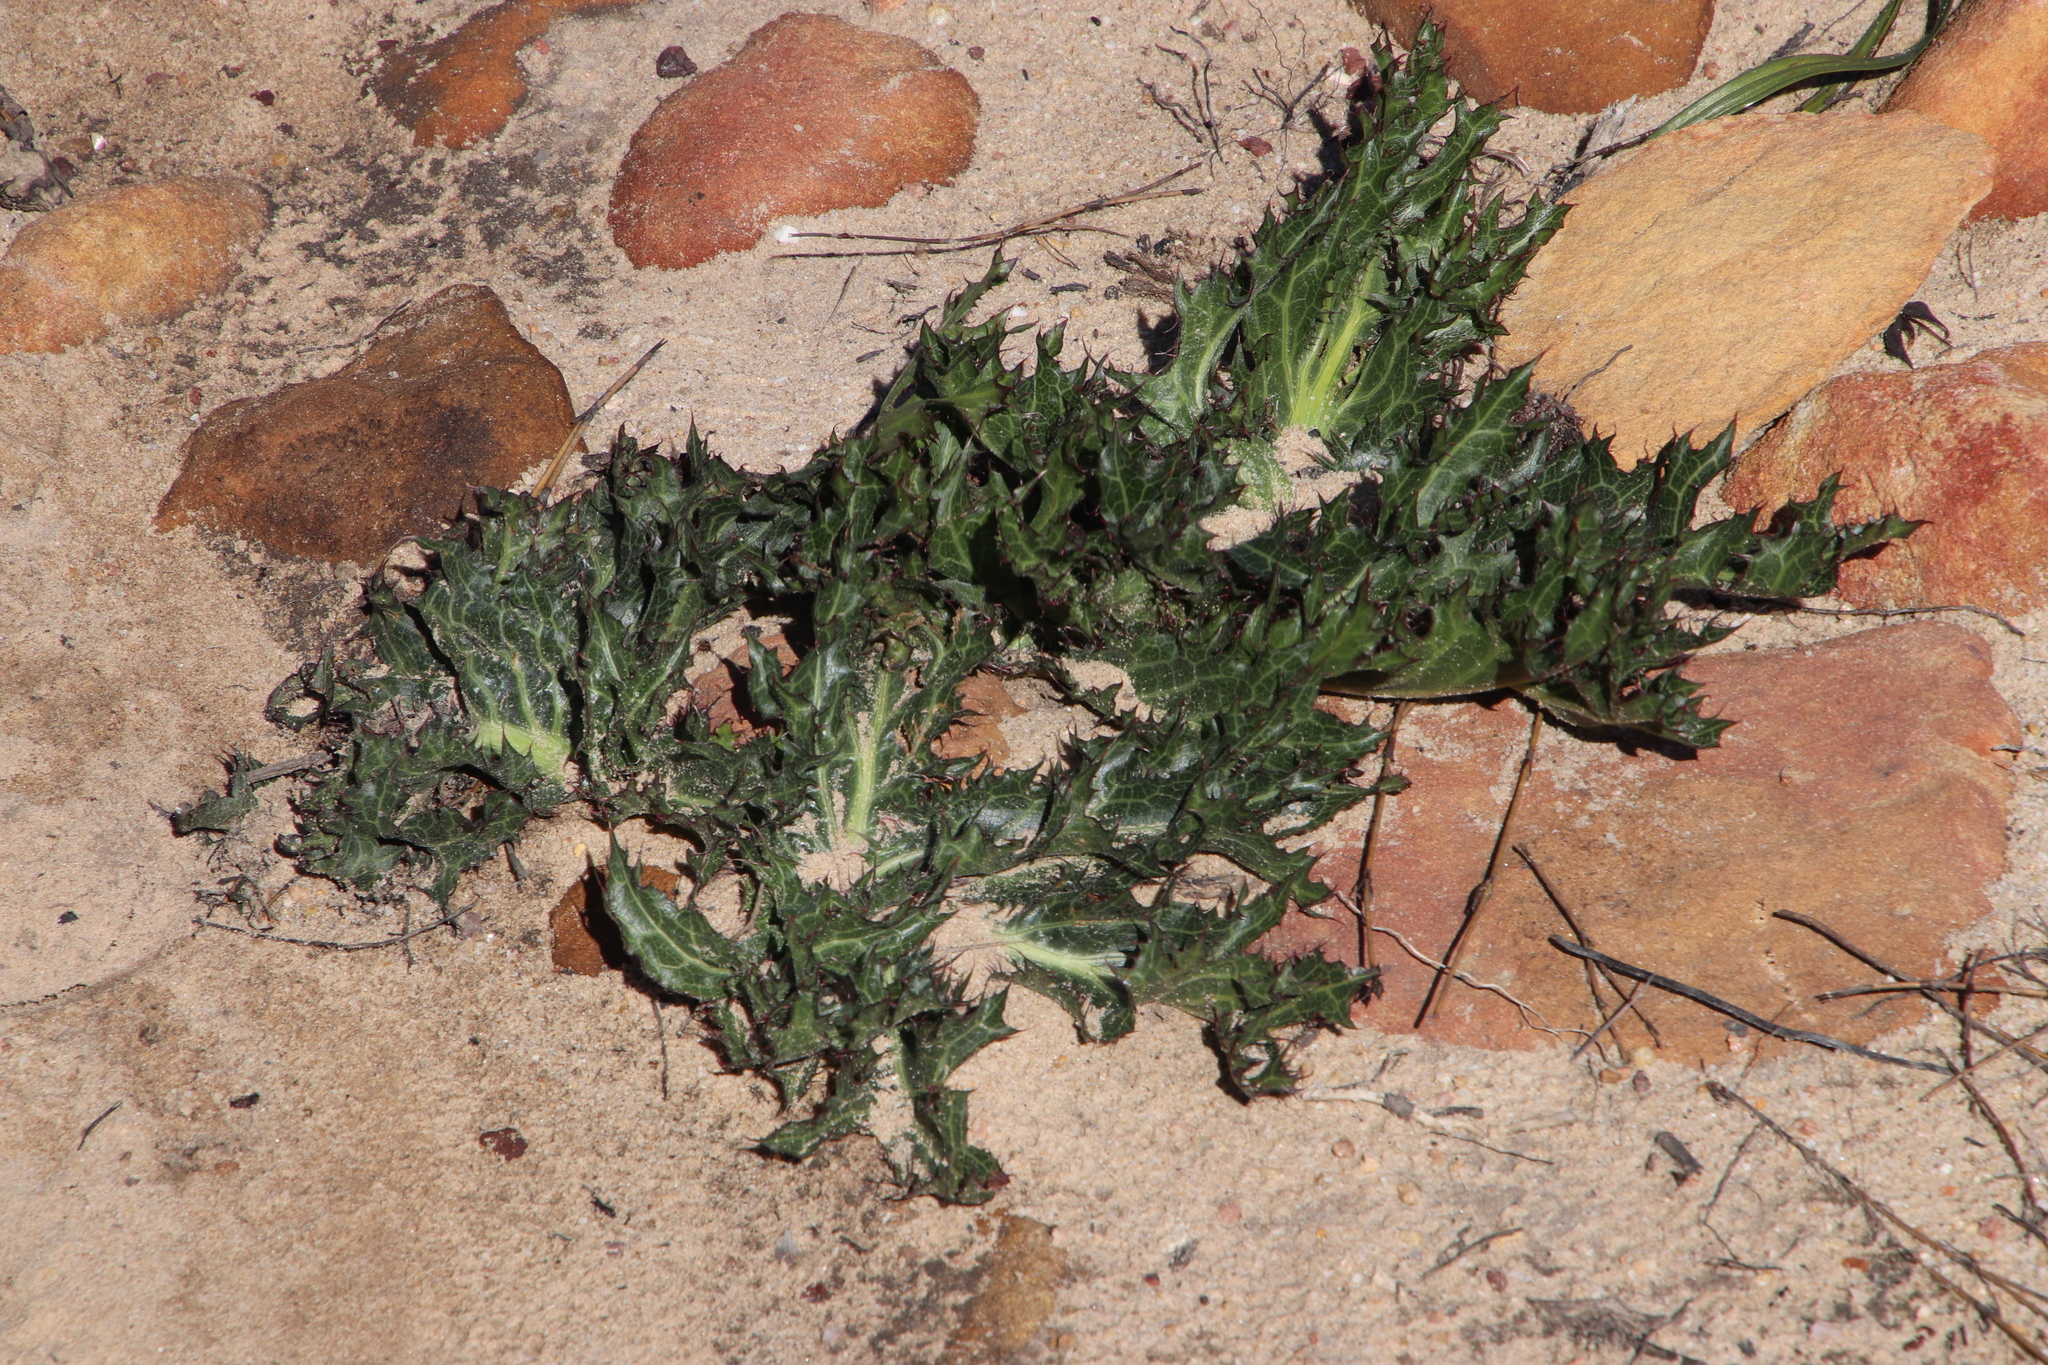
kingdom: Plantae
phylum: Tracheophyta
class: Magnoliopsida
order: Apiales
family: Apiaceae
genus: Lichtensteinia
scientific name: Lichtensteinia lacera
